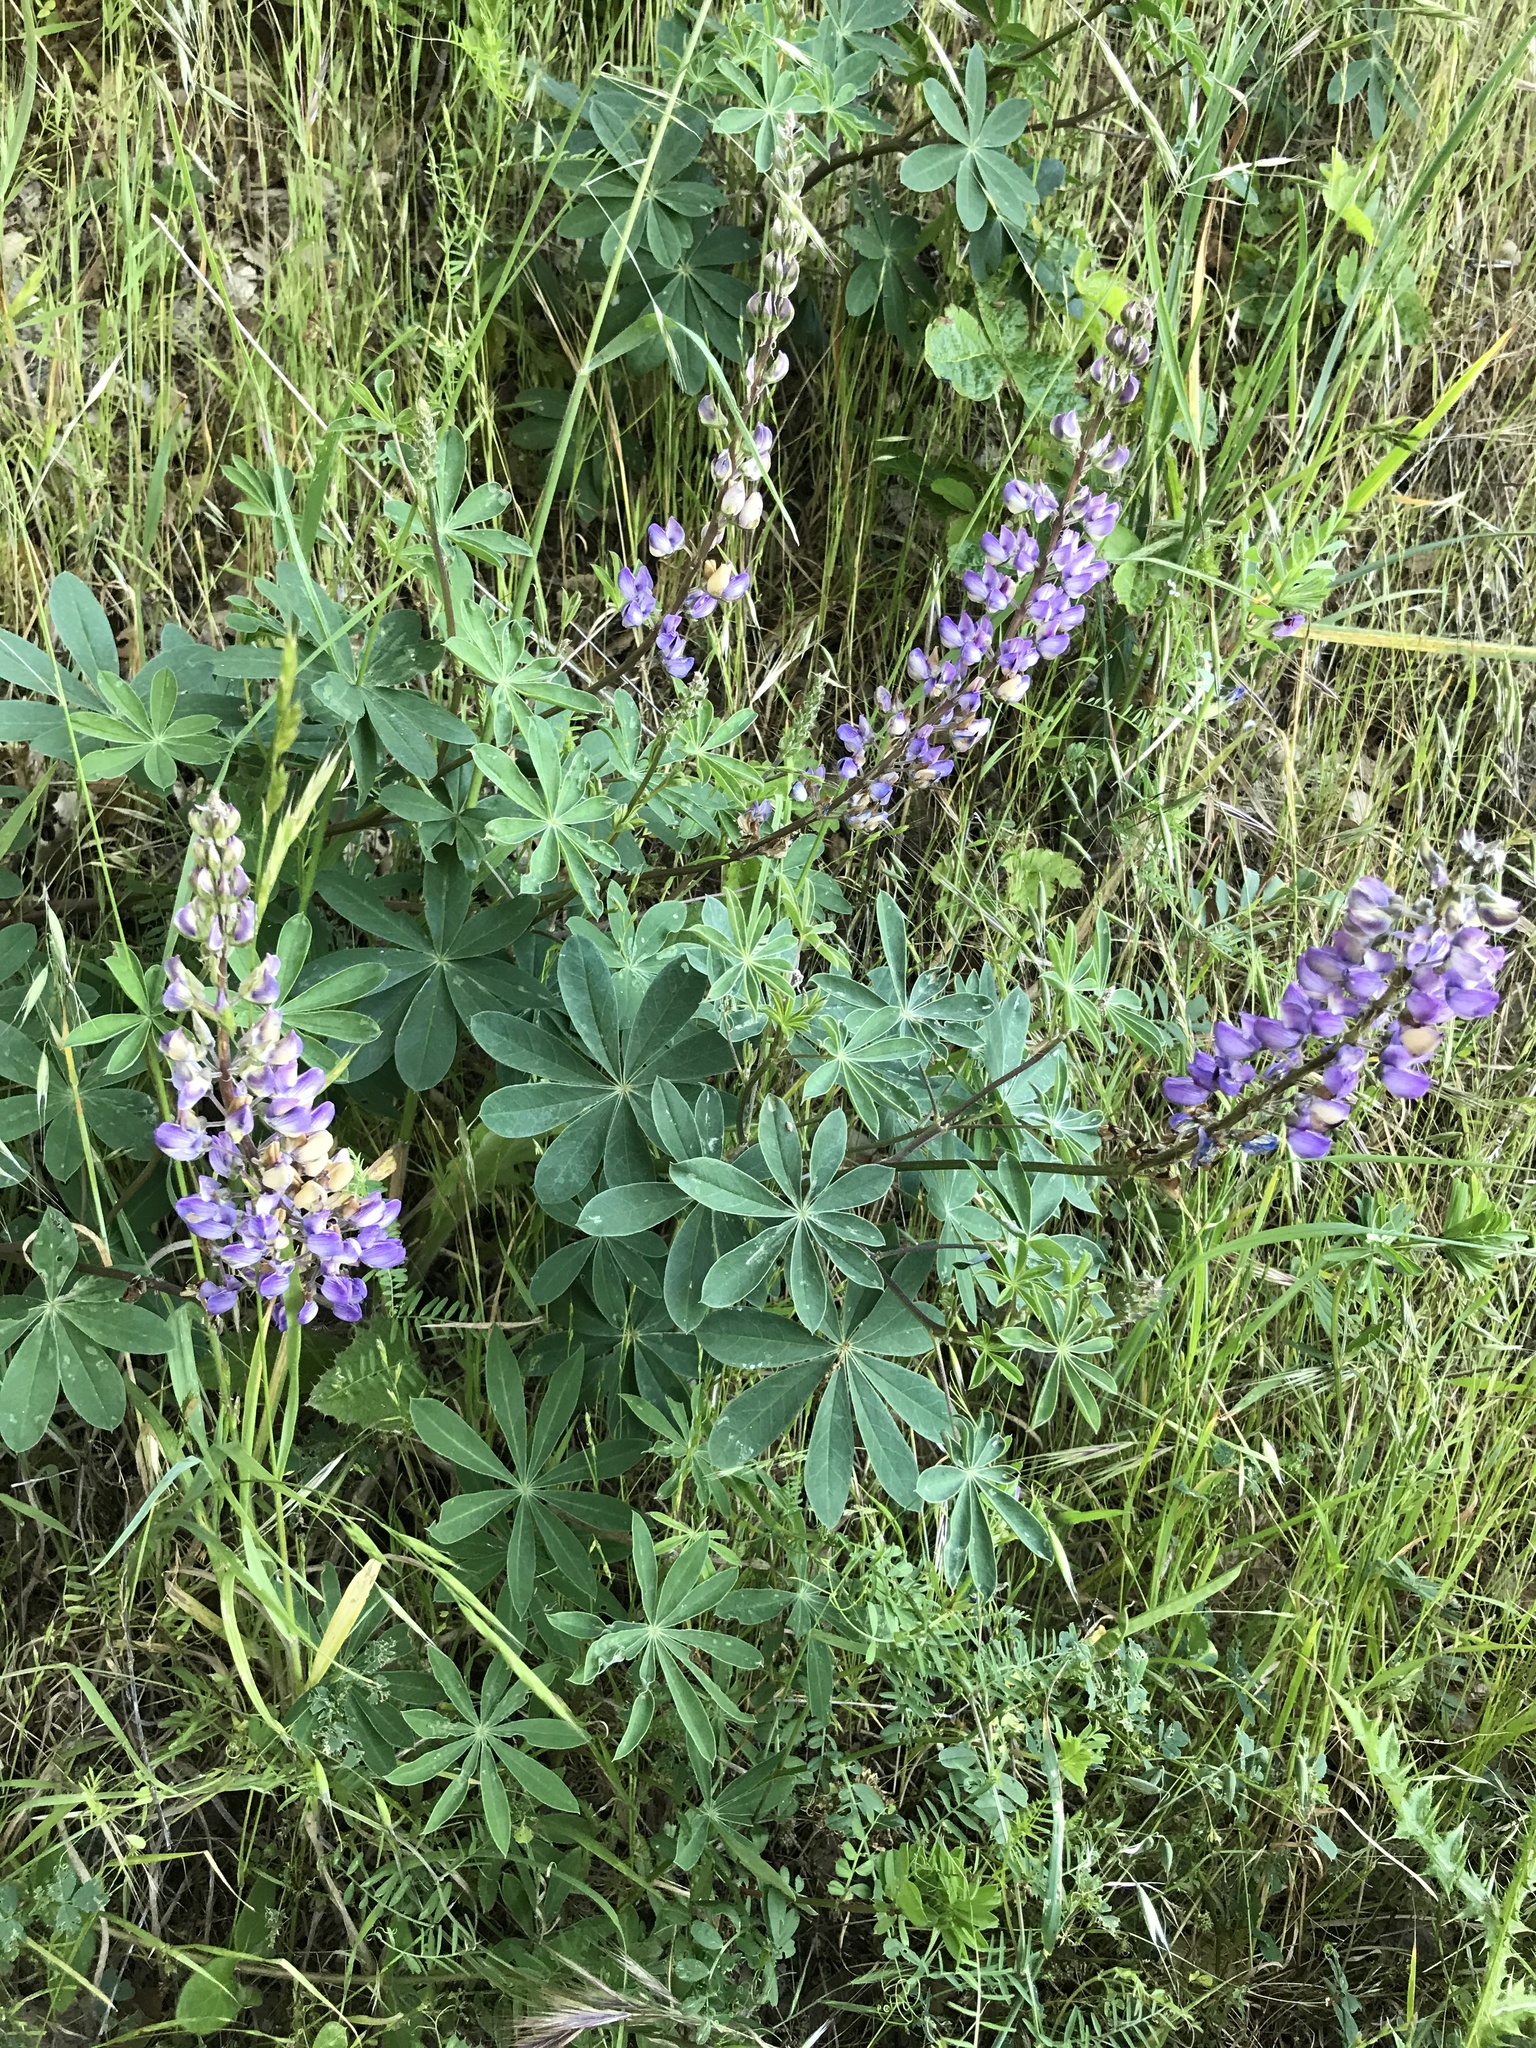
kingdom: Plantae
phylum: Tracheophyta
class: Magnoliopsida
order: Fabales
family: Fabaceae
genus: Lupinus
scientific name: Lupinus latifolius
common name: Broad-leaved lupine
